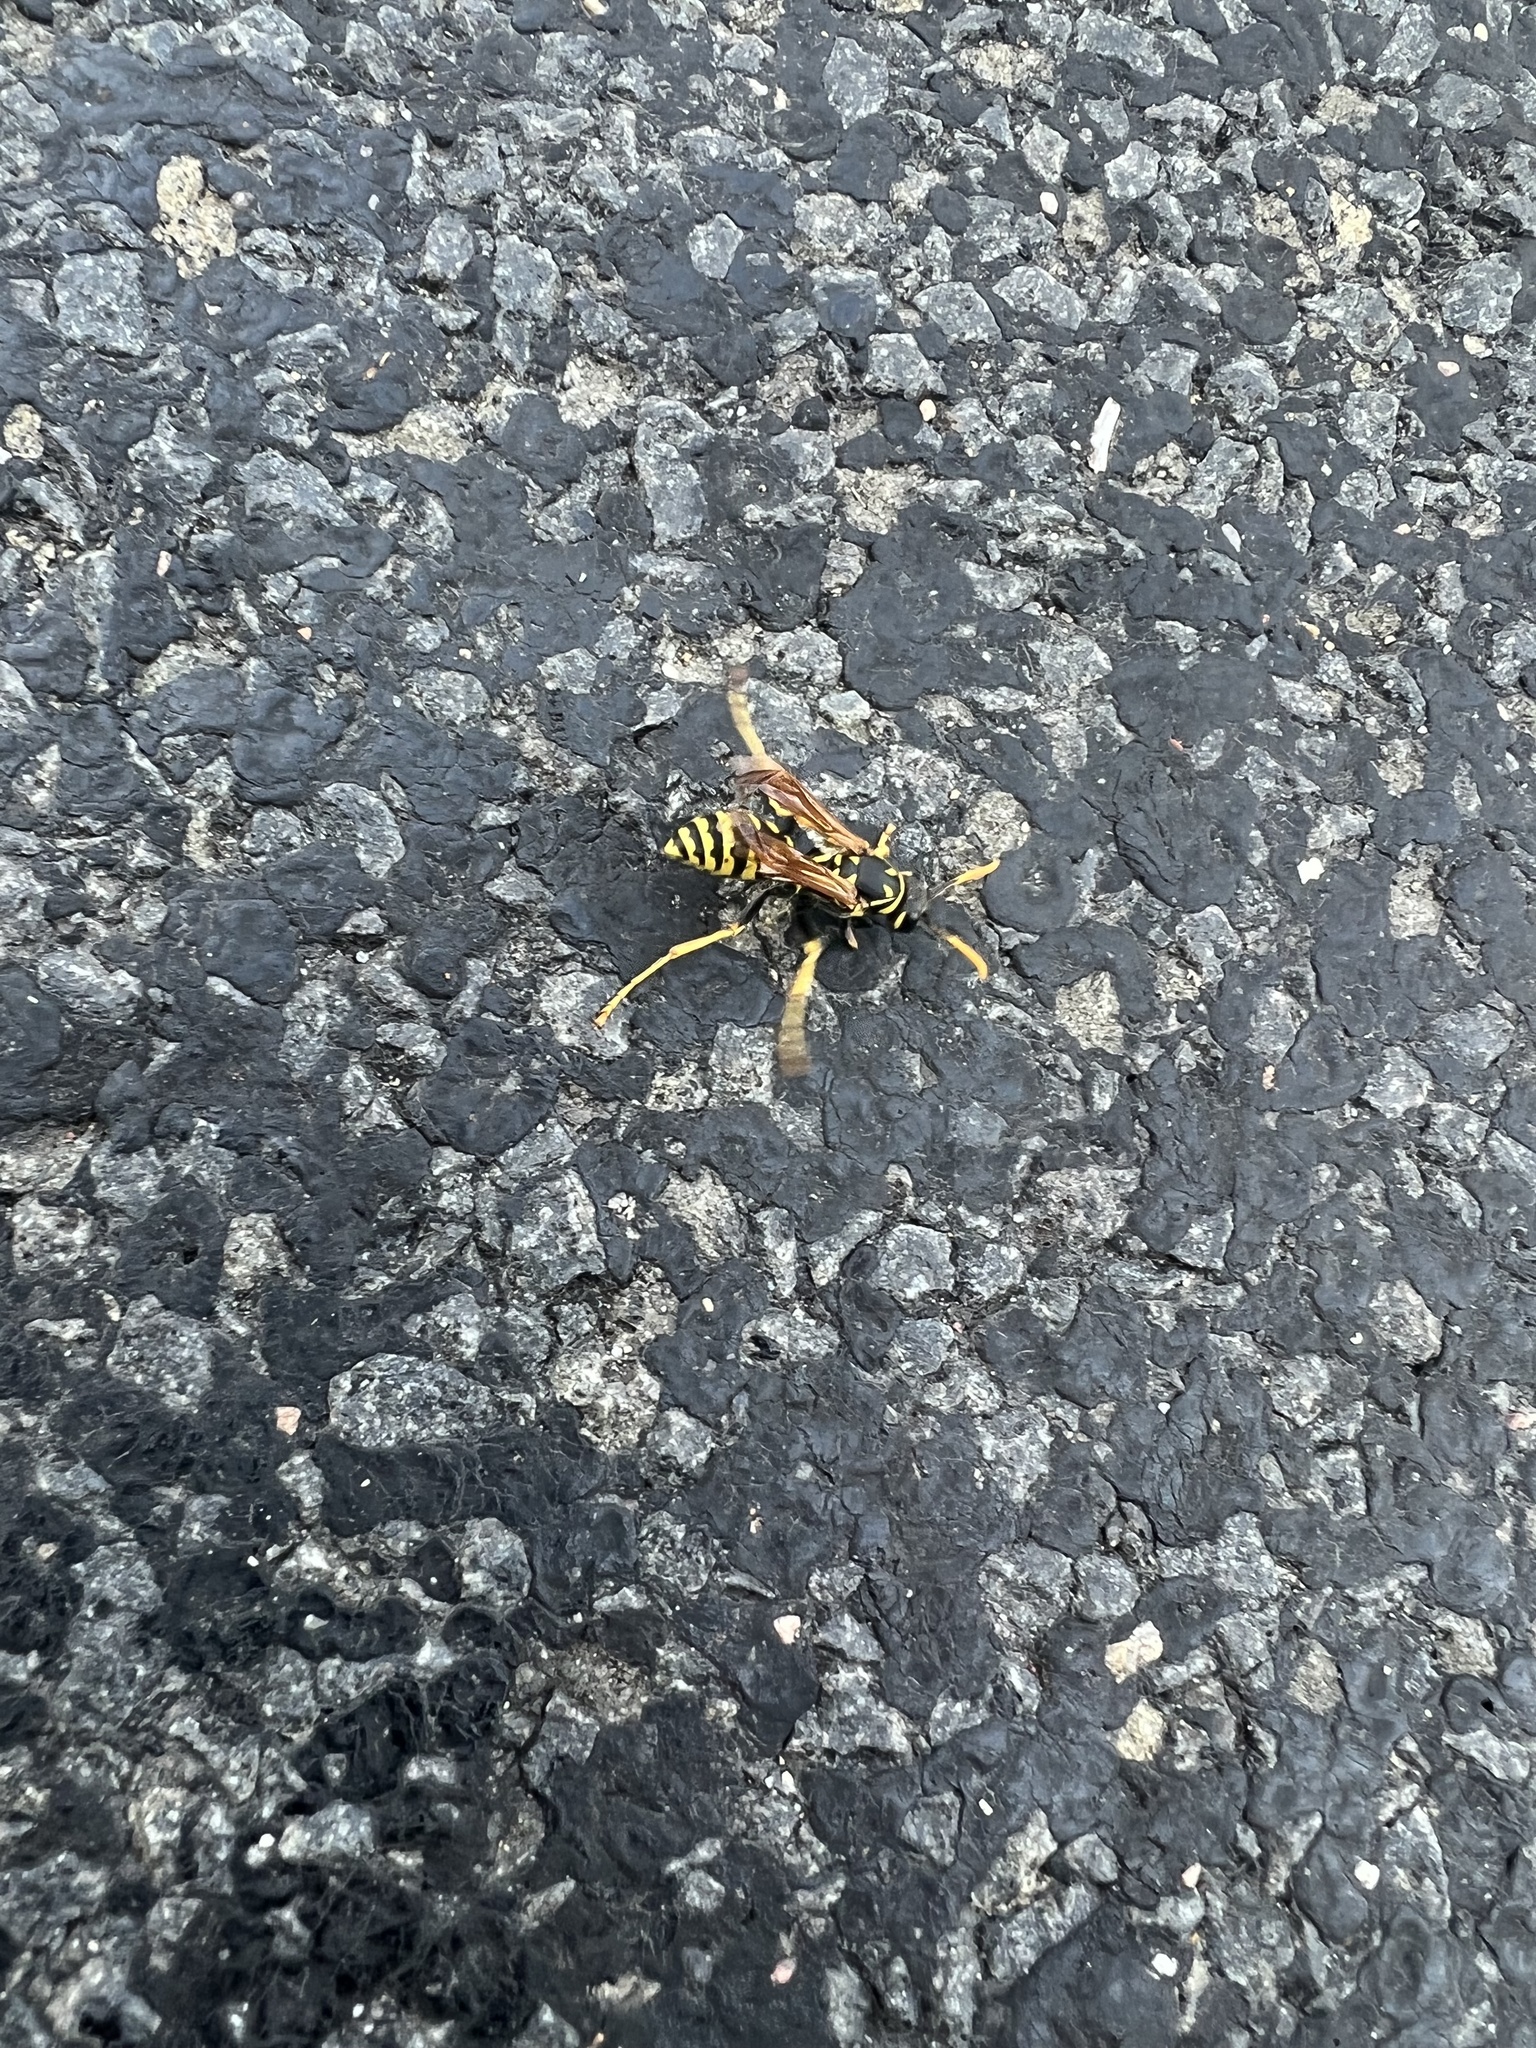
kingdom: Animalia
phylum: Arthropoda
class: Insecta
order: Hymenoptera
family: Eumenidae
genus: Polistes
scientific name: Polistes dominula
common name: Paper wasp
